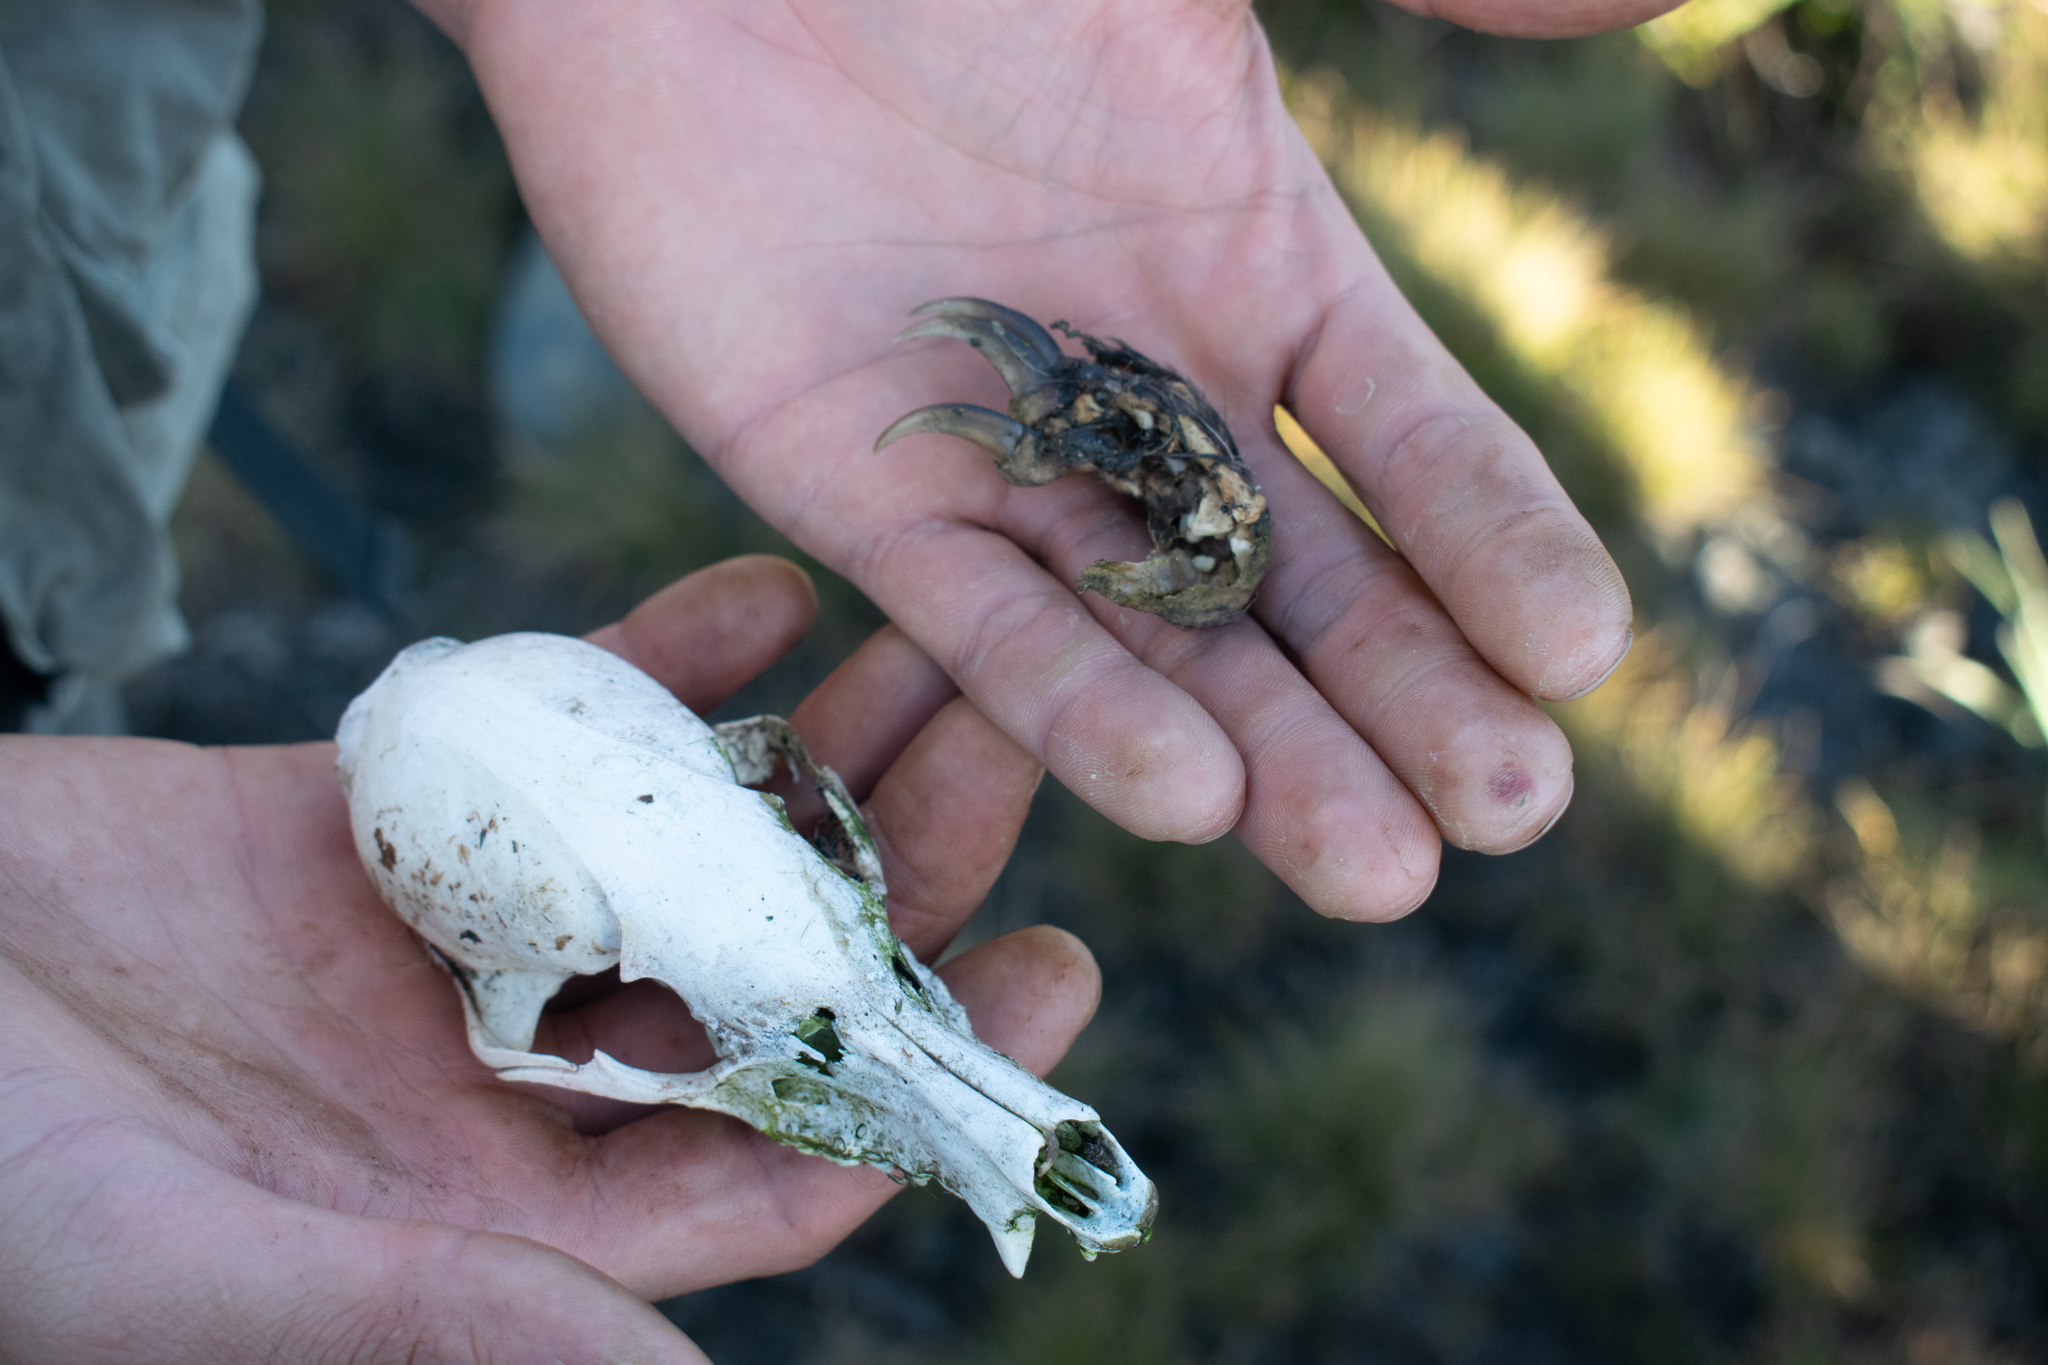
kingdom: Animalia
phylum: Chordata
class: Mammalia
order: Carnivora
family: Procyonidae
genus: Nasua
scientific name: Nasua nasua
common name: South american coati
